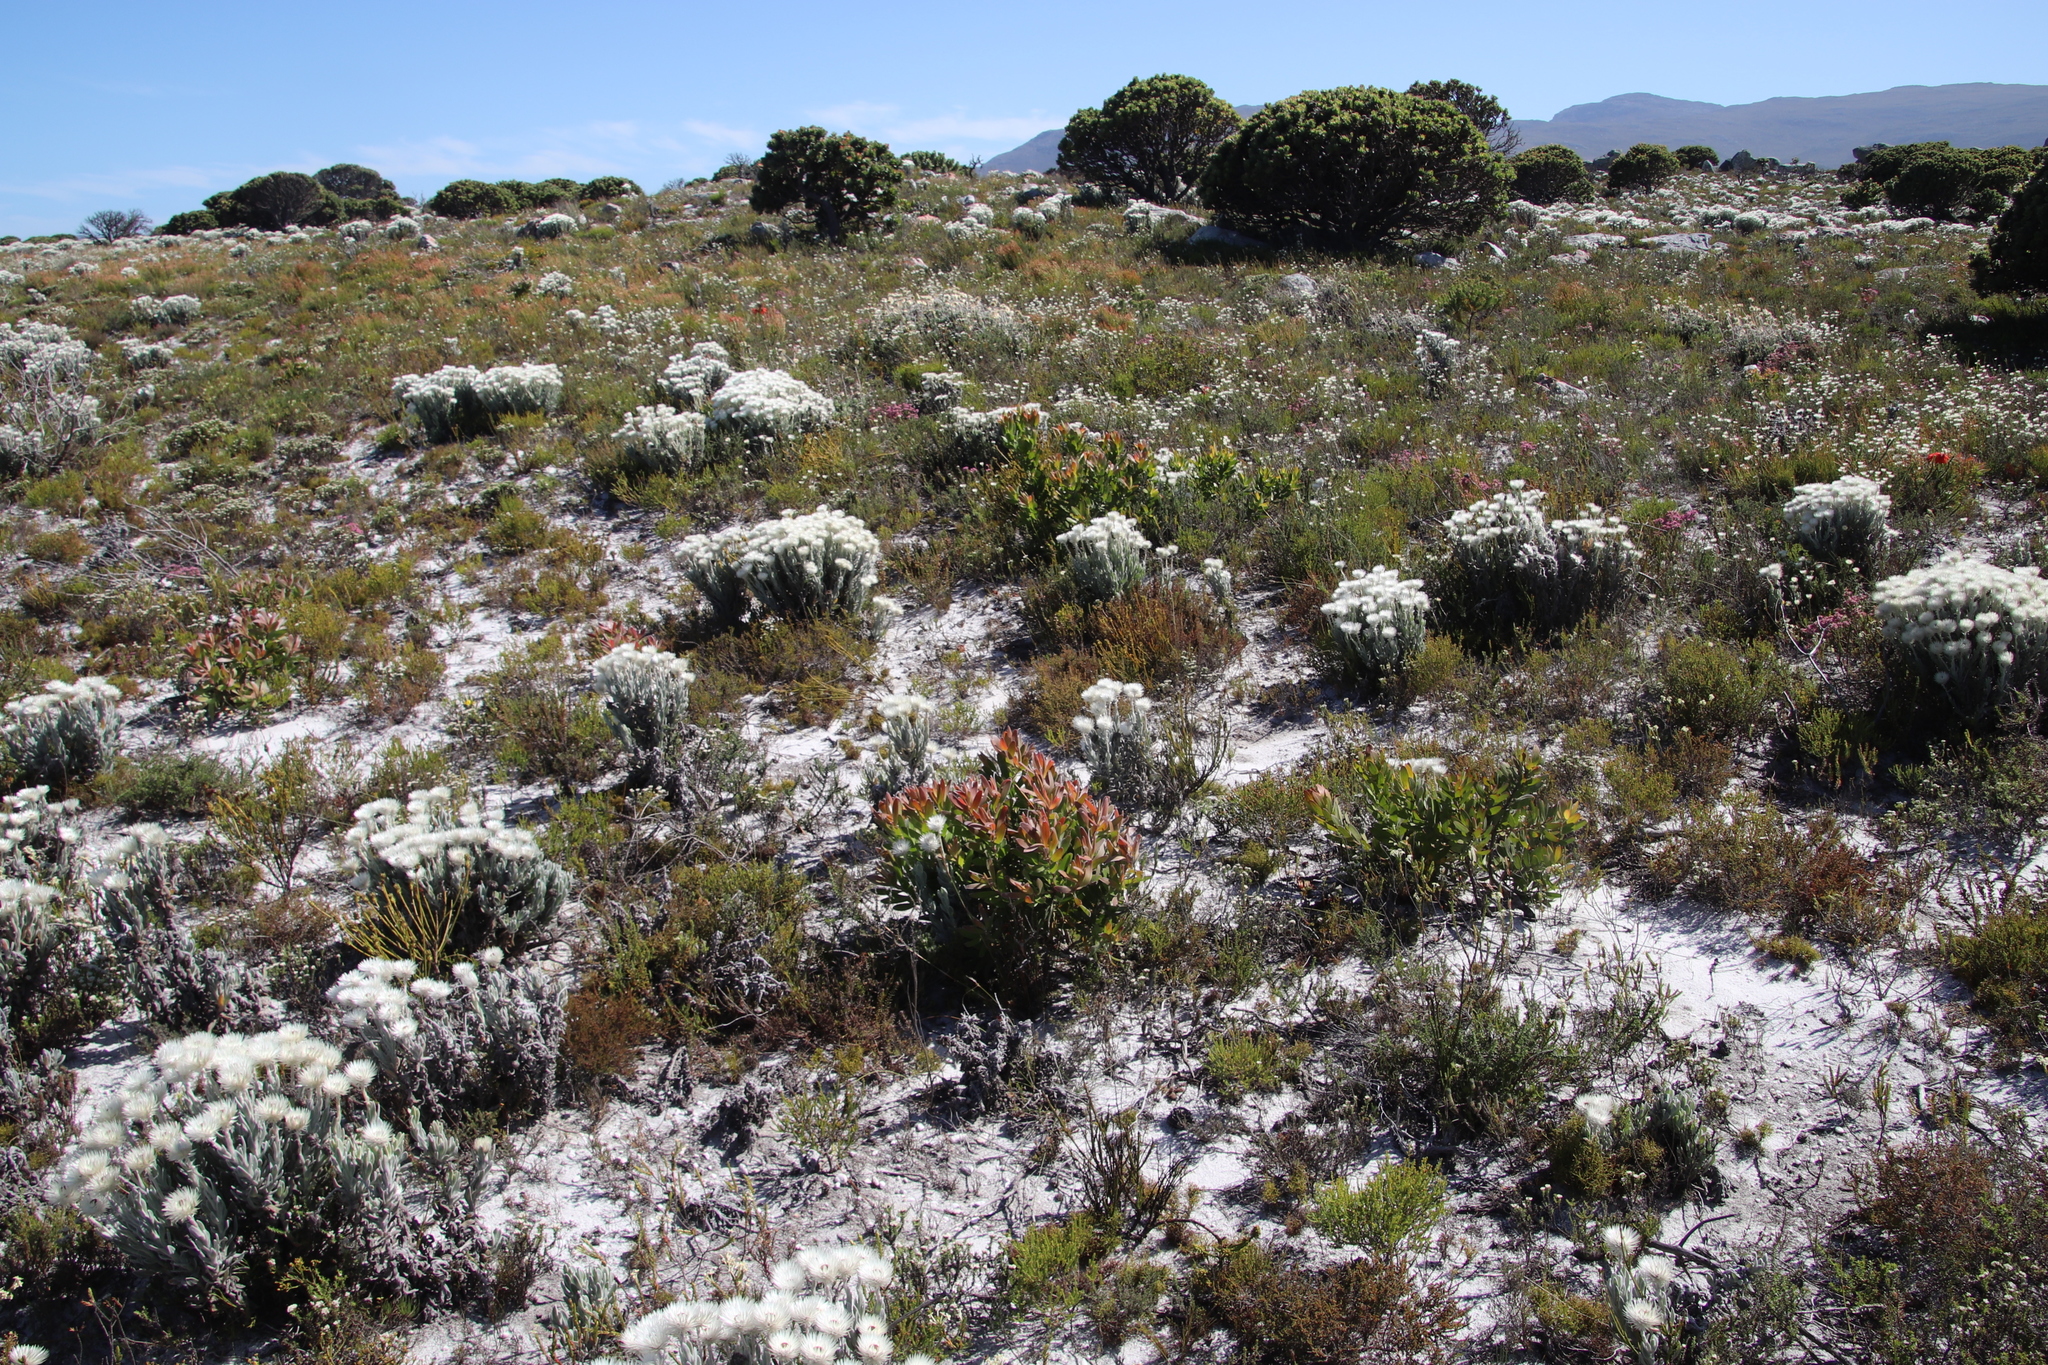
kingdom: Plantae
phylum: Tracheophyta
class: Magnoliopsida
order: Proteales
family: Proteaceae
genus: Leucadendron
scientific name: Leucadendron laureolum
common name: Golden sunshinebush
